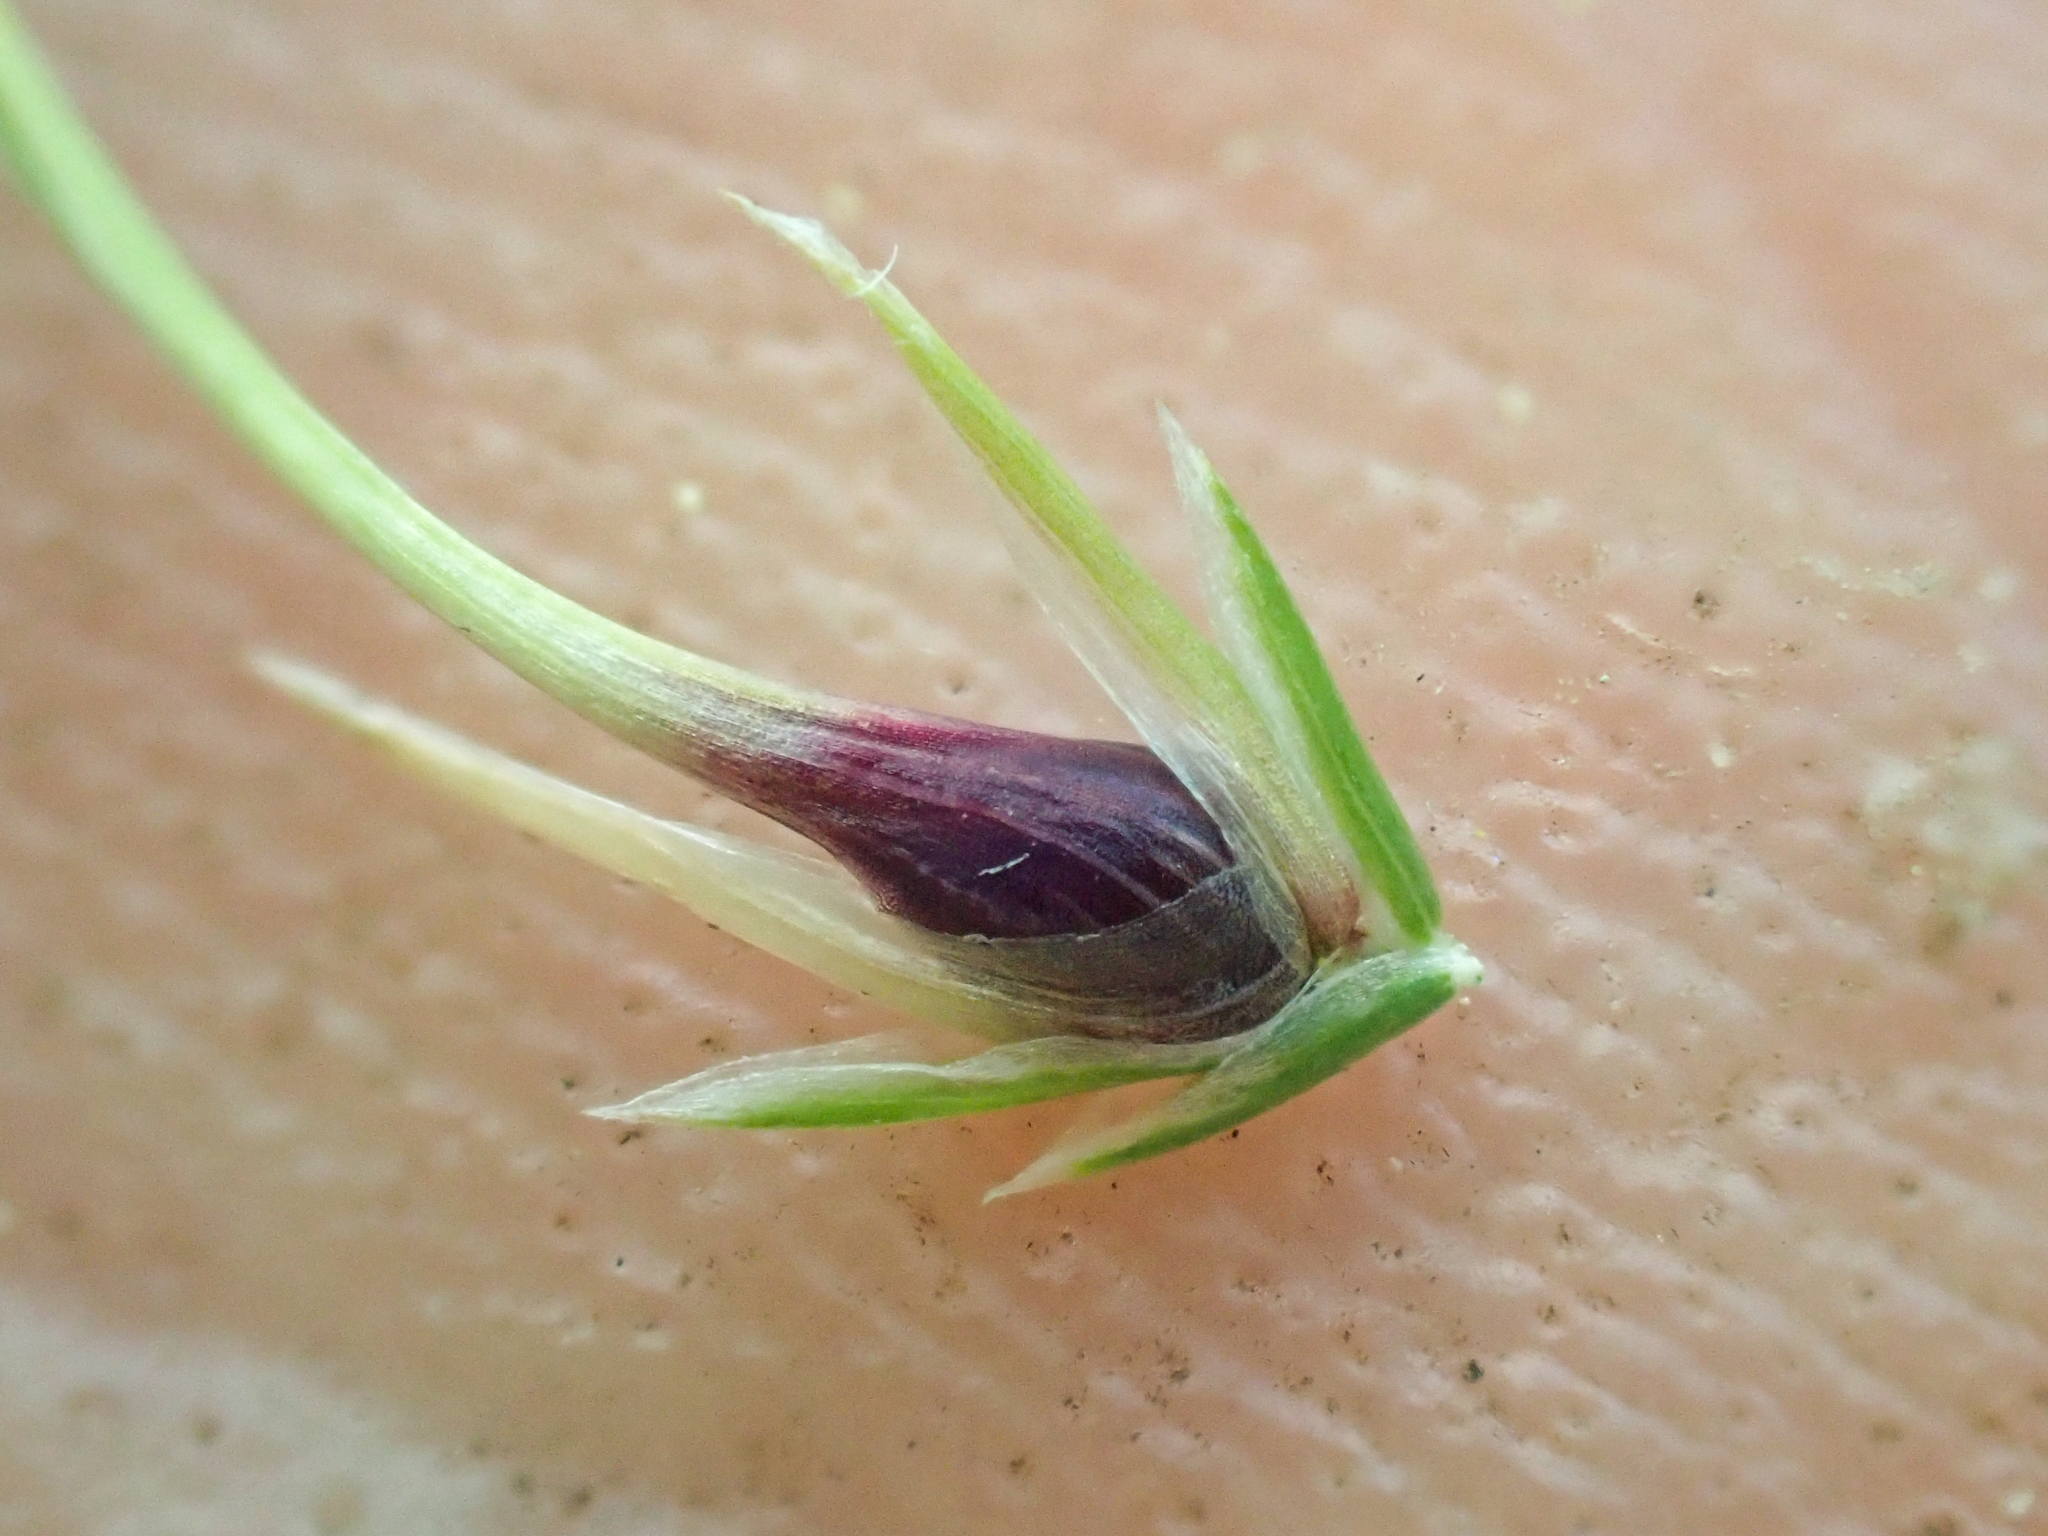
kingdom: Plantae
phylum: Tracheophyta
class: Magnoliopsida
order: Fabales
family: Fabaceae
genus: Hosackia
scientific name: Hosackia crassifolia
